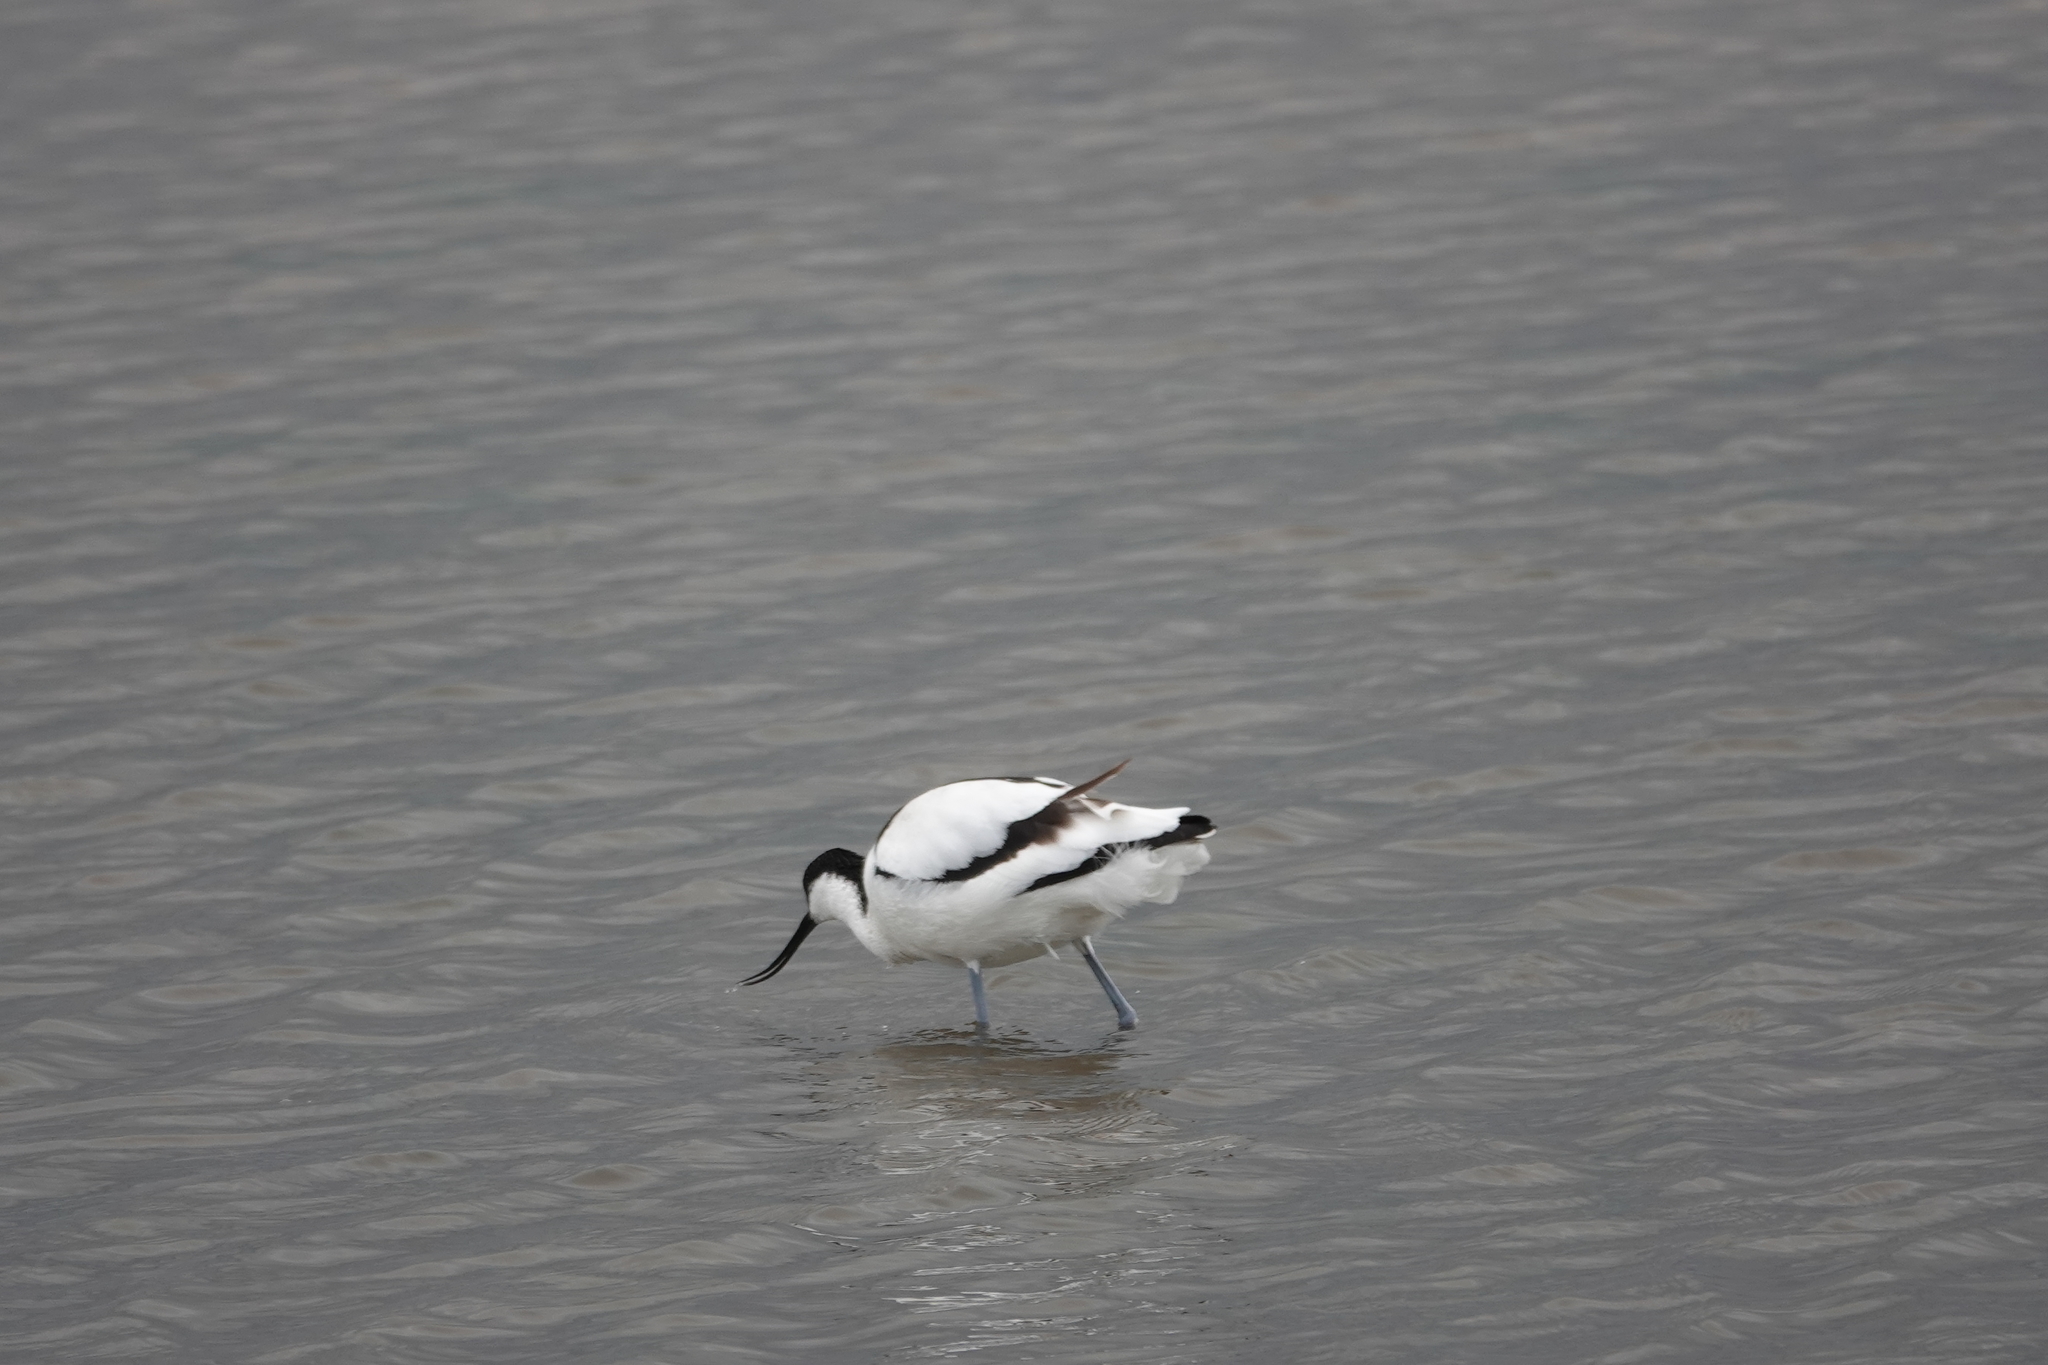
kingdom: Animalia
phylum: Chordata
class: Aves
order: Charadriiformes
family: Recurvirostridae
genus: Recurvirostra
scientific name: Recurvirostra avosetta
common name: Pied avocet
